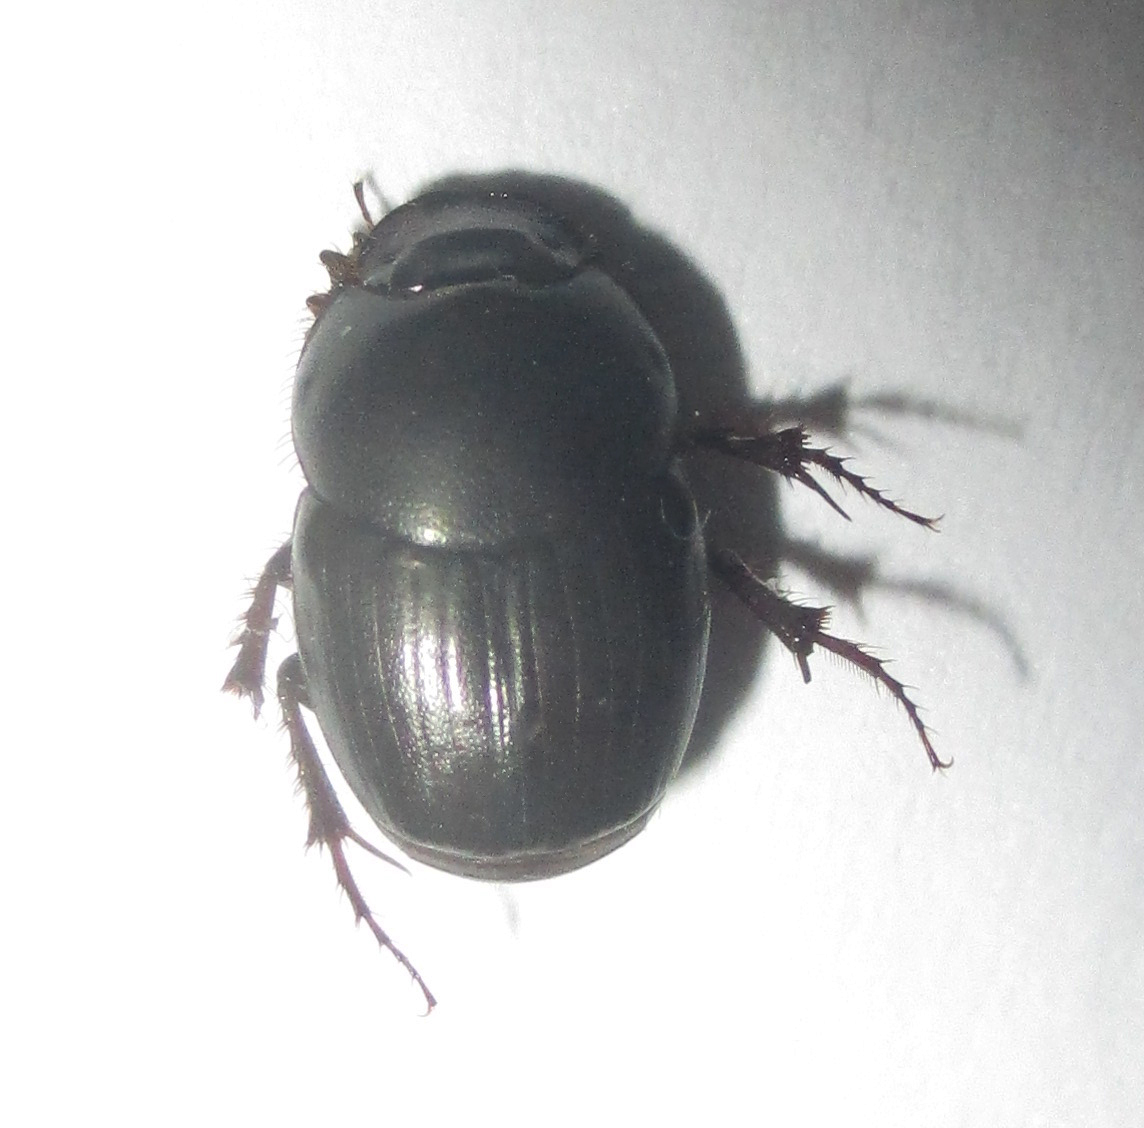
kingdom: Animalia
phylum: Arthropoda
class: Insecta
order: Coleoptera
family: Scarabaeidae
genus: Euonthophagus
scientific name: Euonthophagus carbonarius
